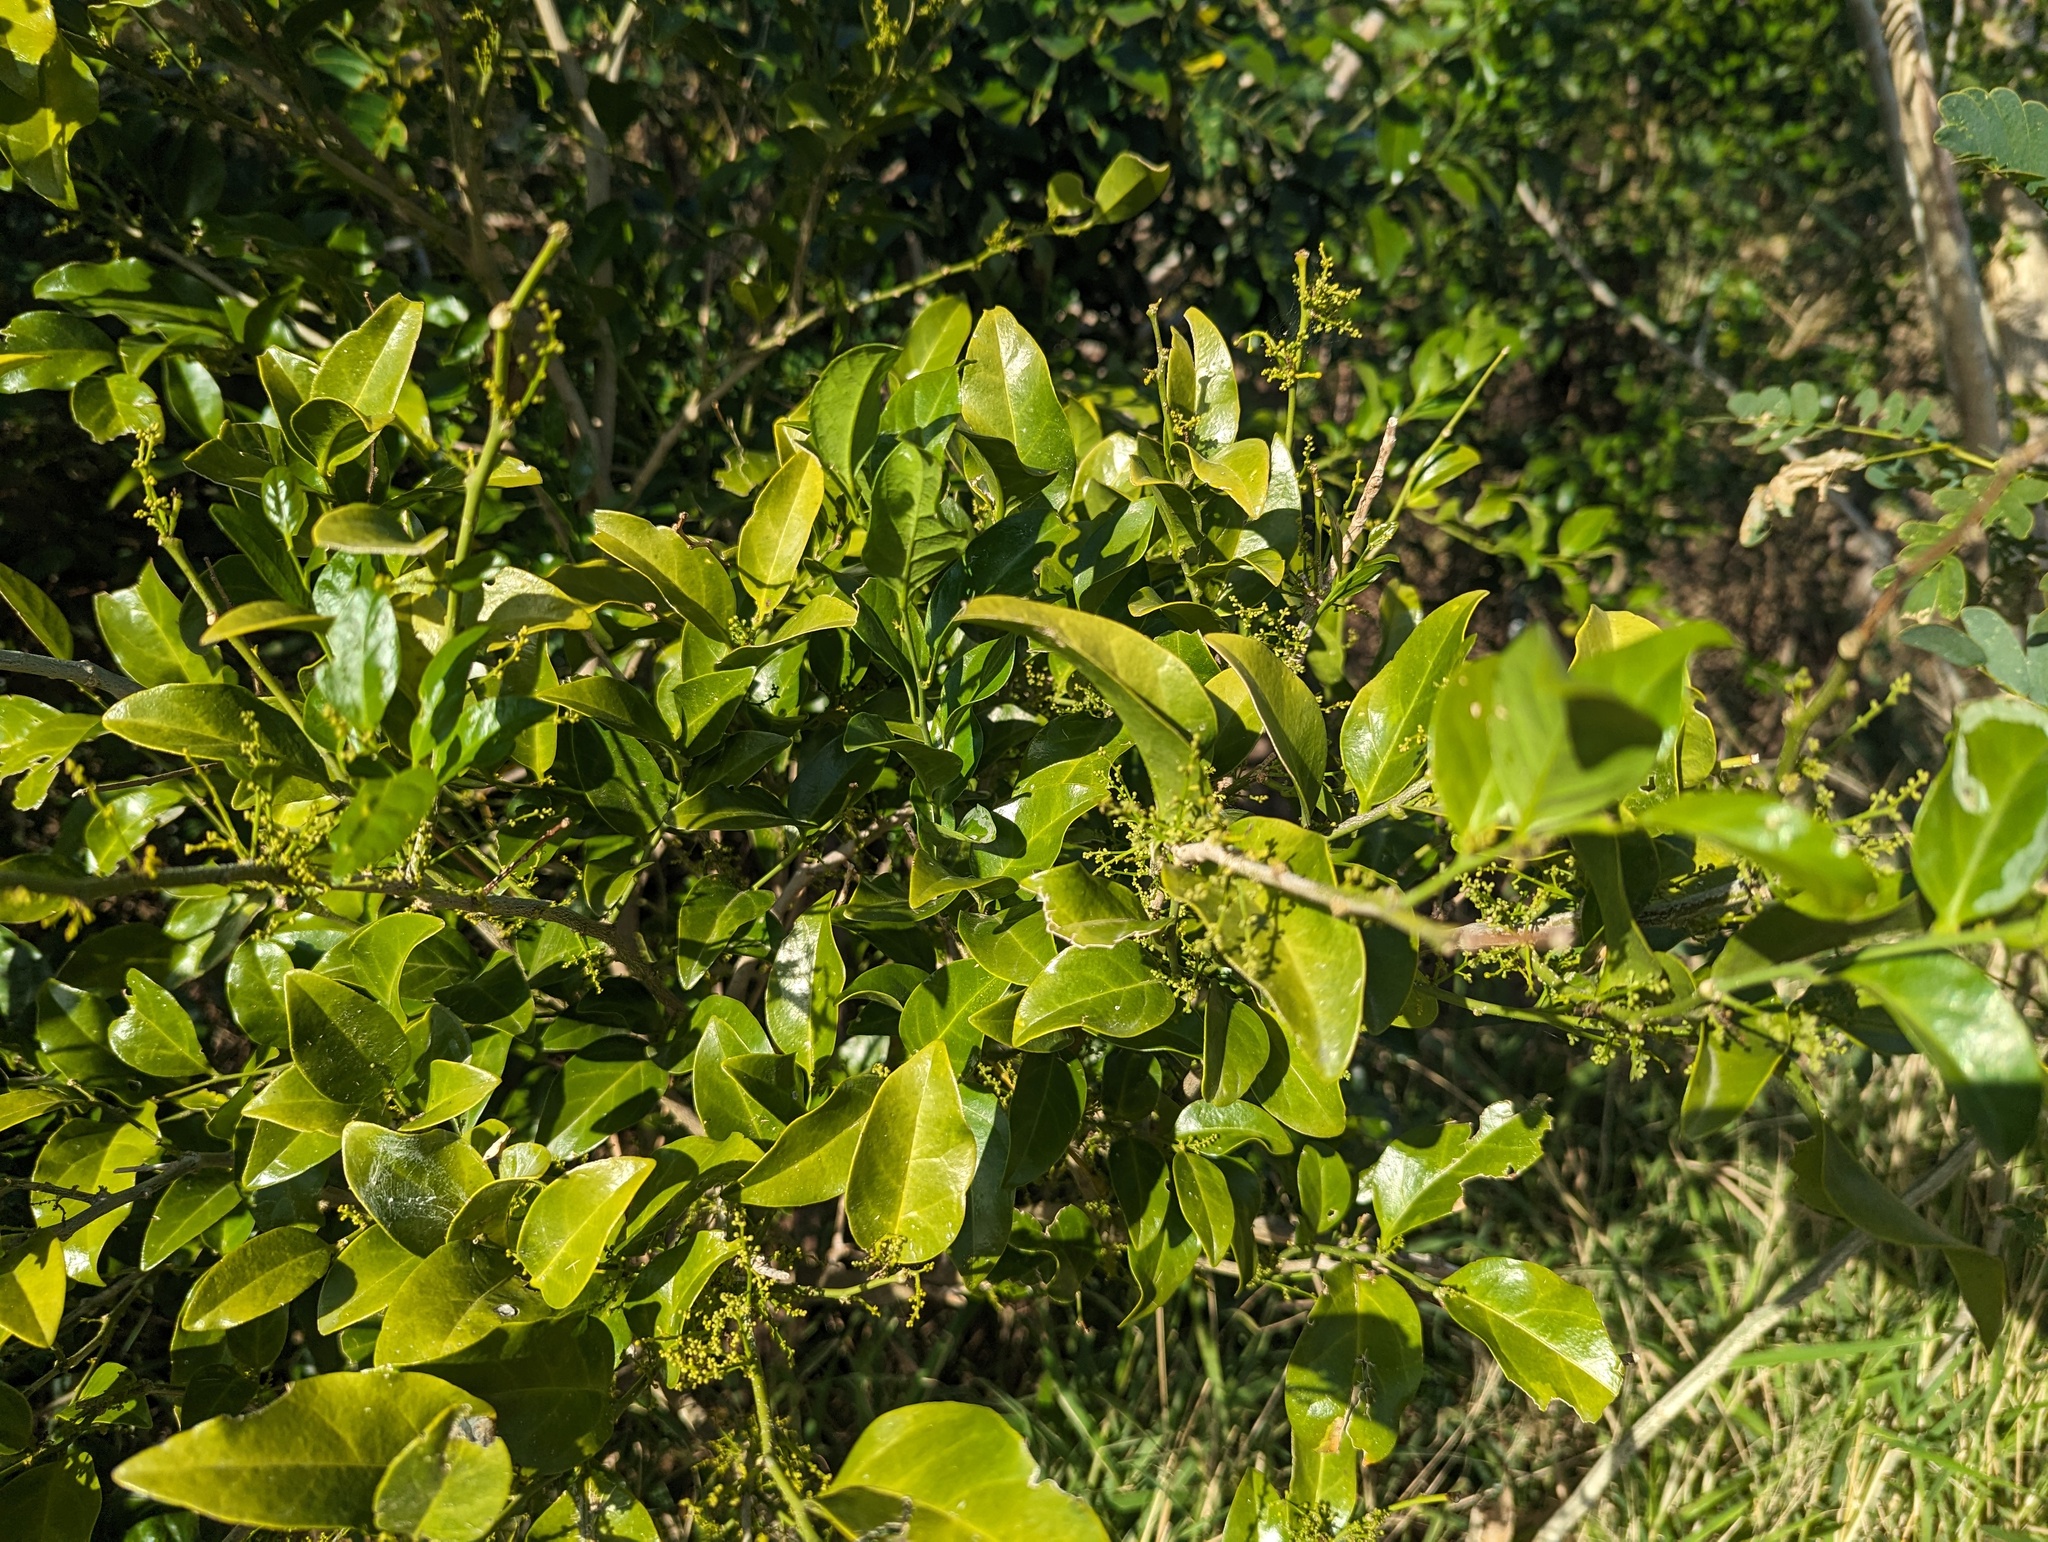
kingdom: Plantae
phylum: Tracheophyta
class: Magnoliopsida
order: Santalales
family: Opiliaceae
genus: Champereia
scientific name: Champereia manillana
